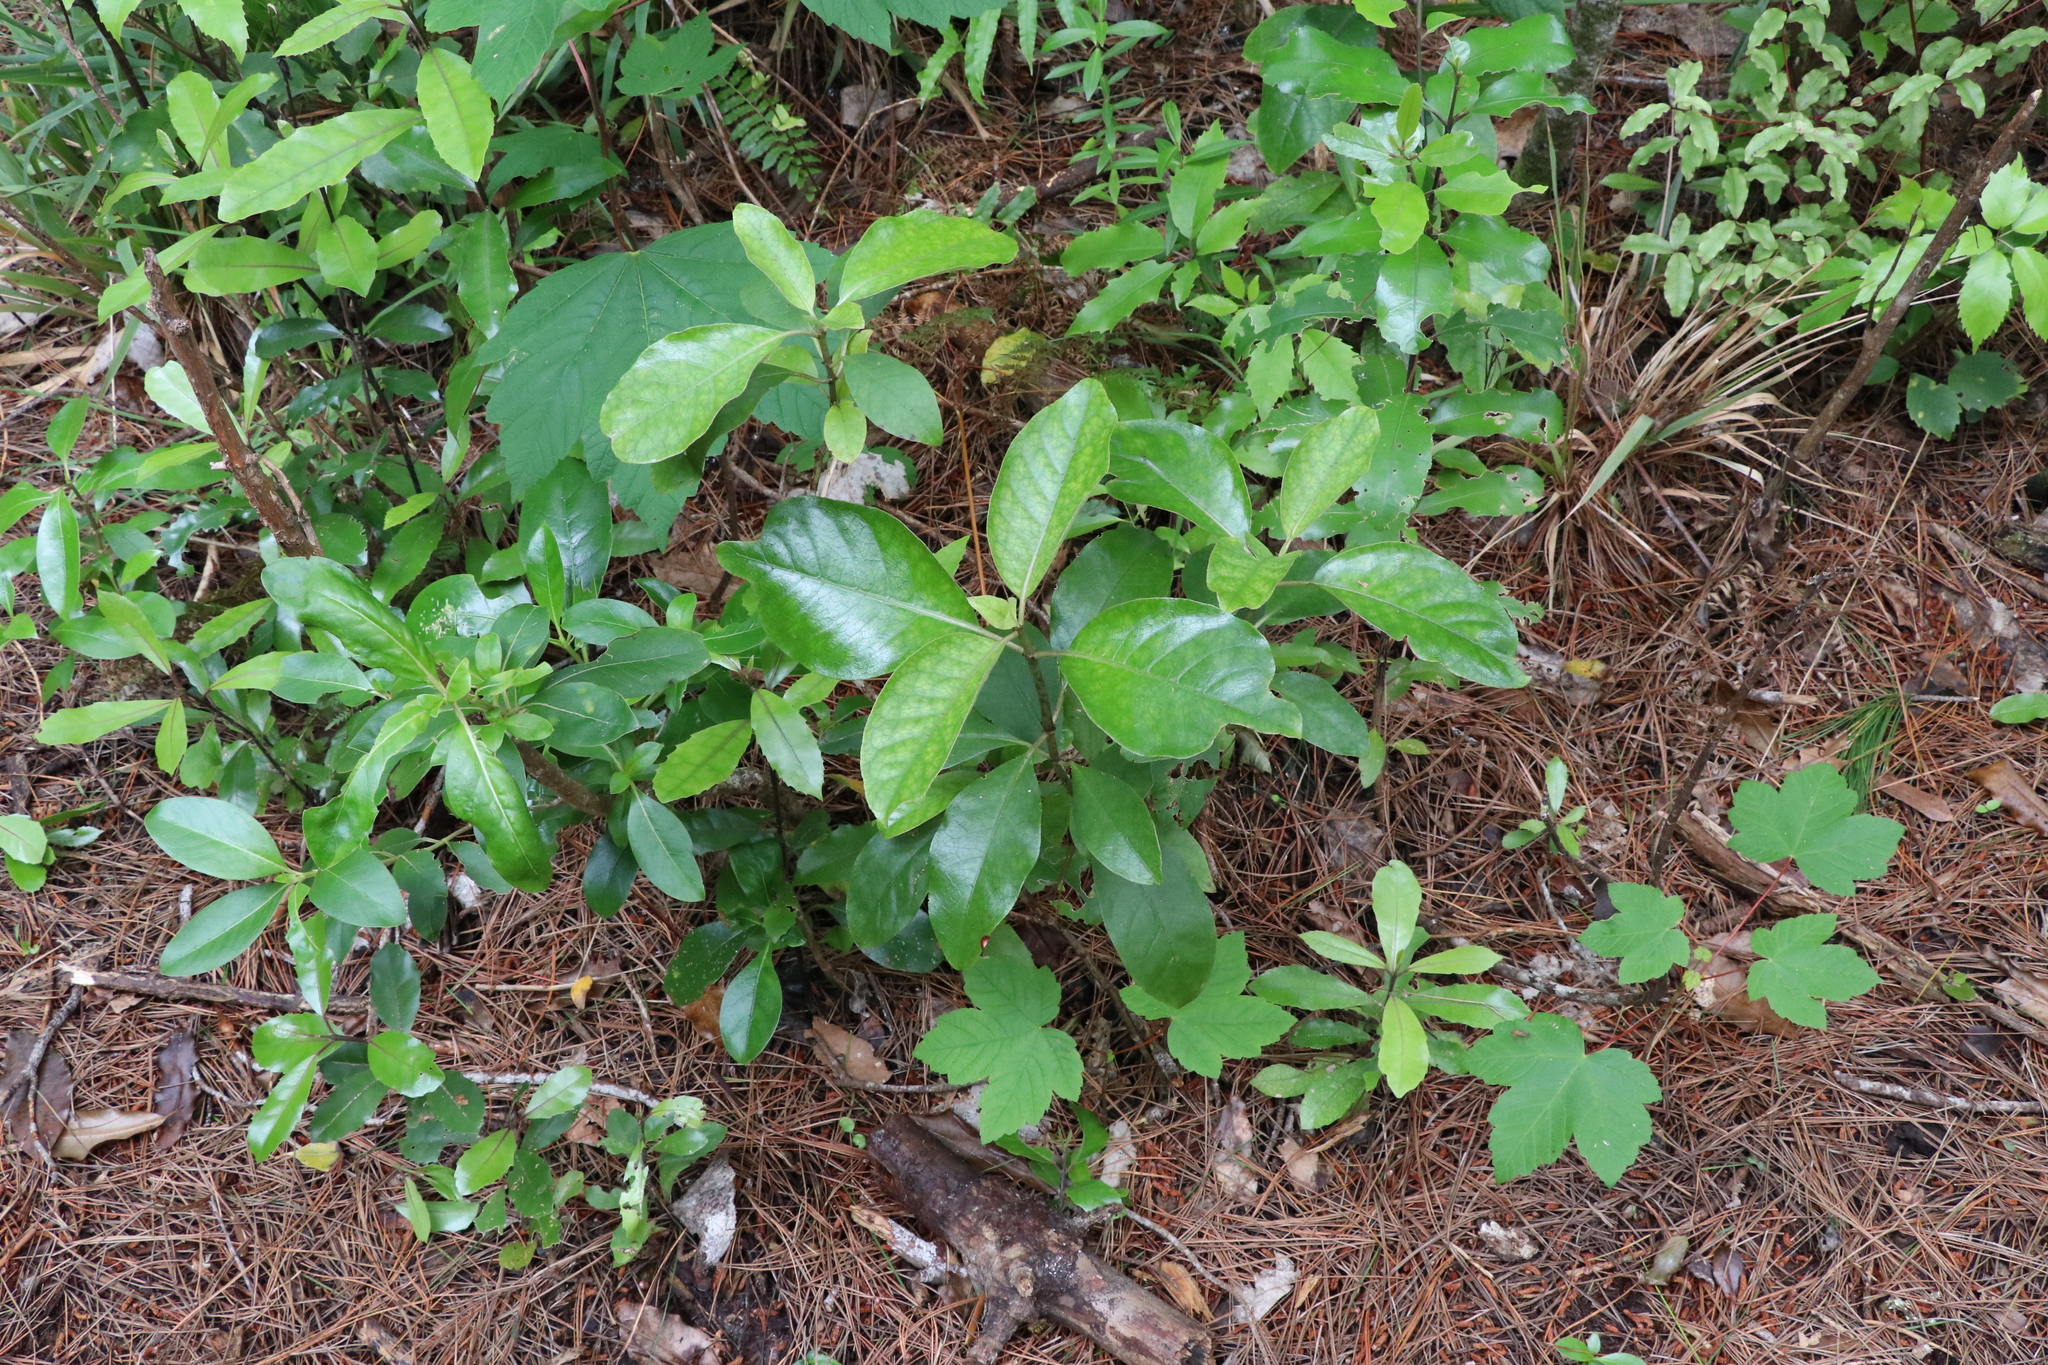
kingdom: Plantae
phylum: Tracheophyta
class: Magnoliopsida
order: Gentianales
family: Rubiaceae
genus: Coprosma
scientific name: Coprosma autumnalis
